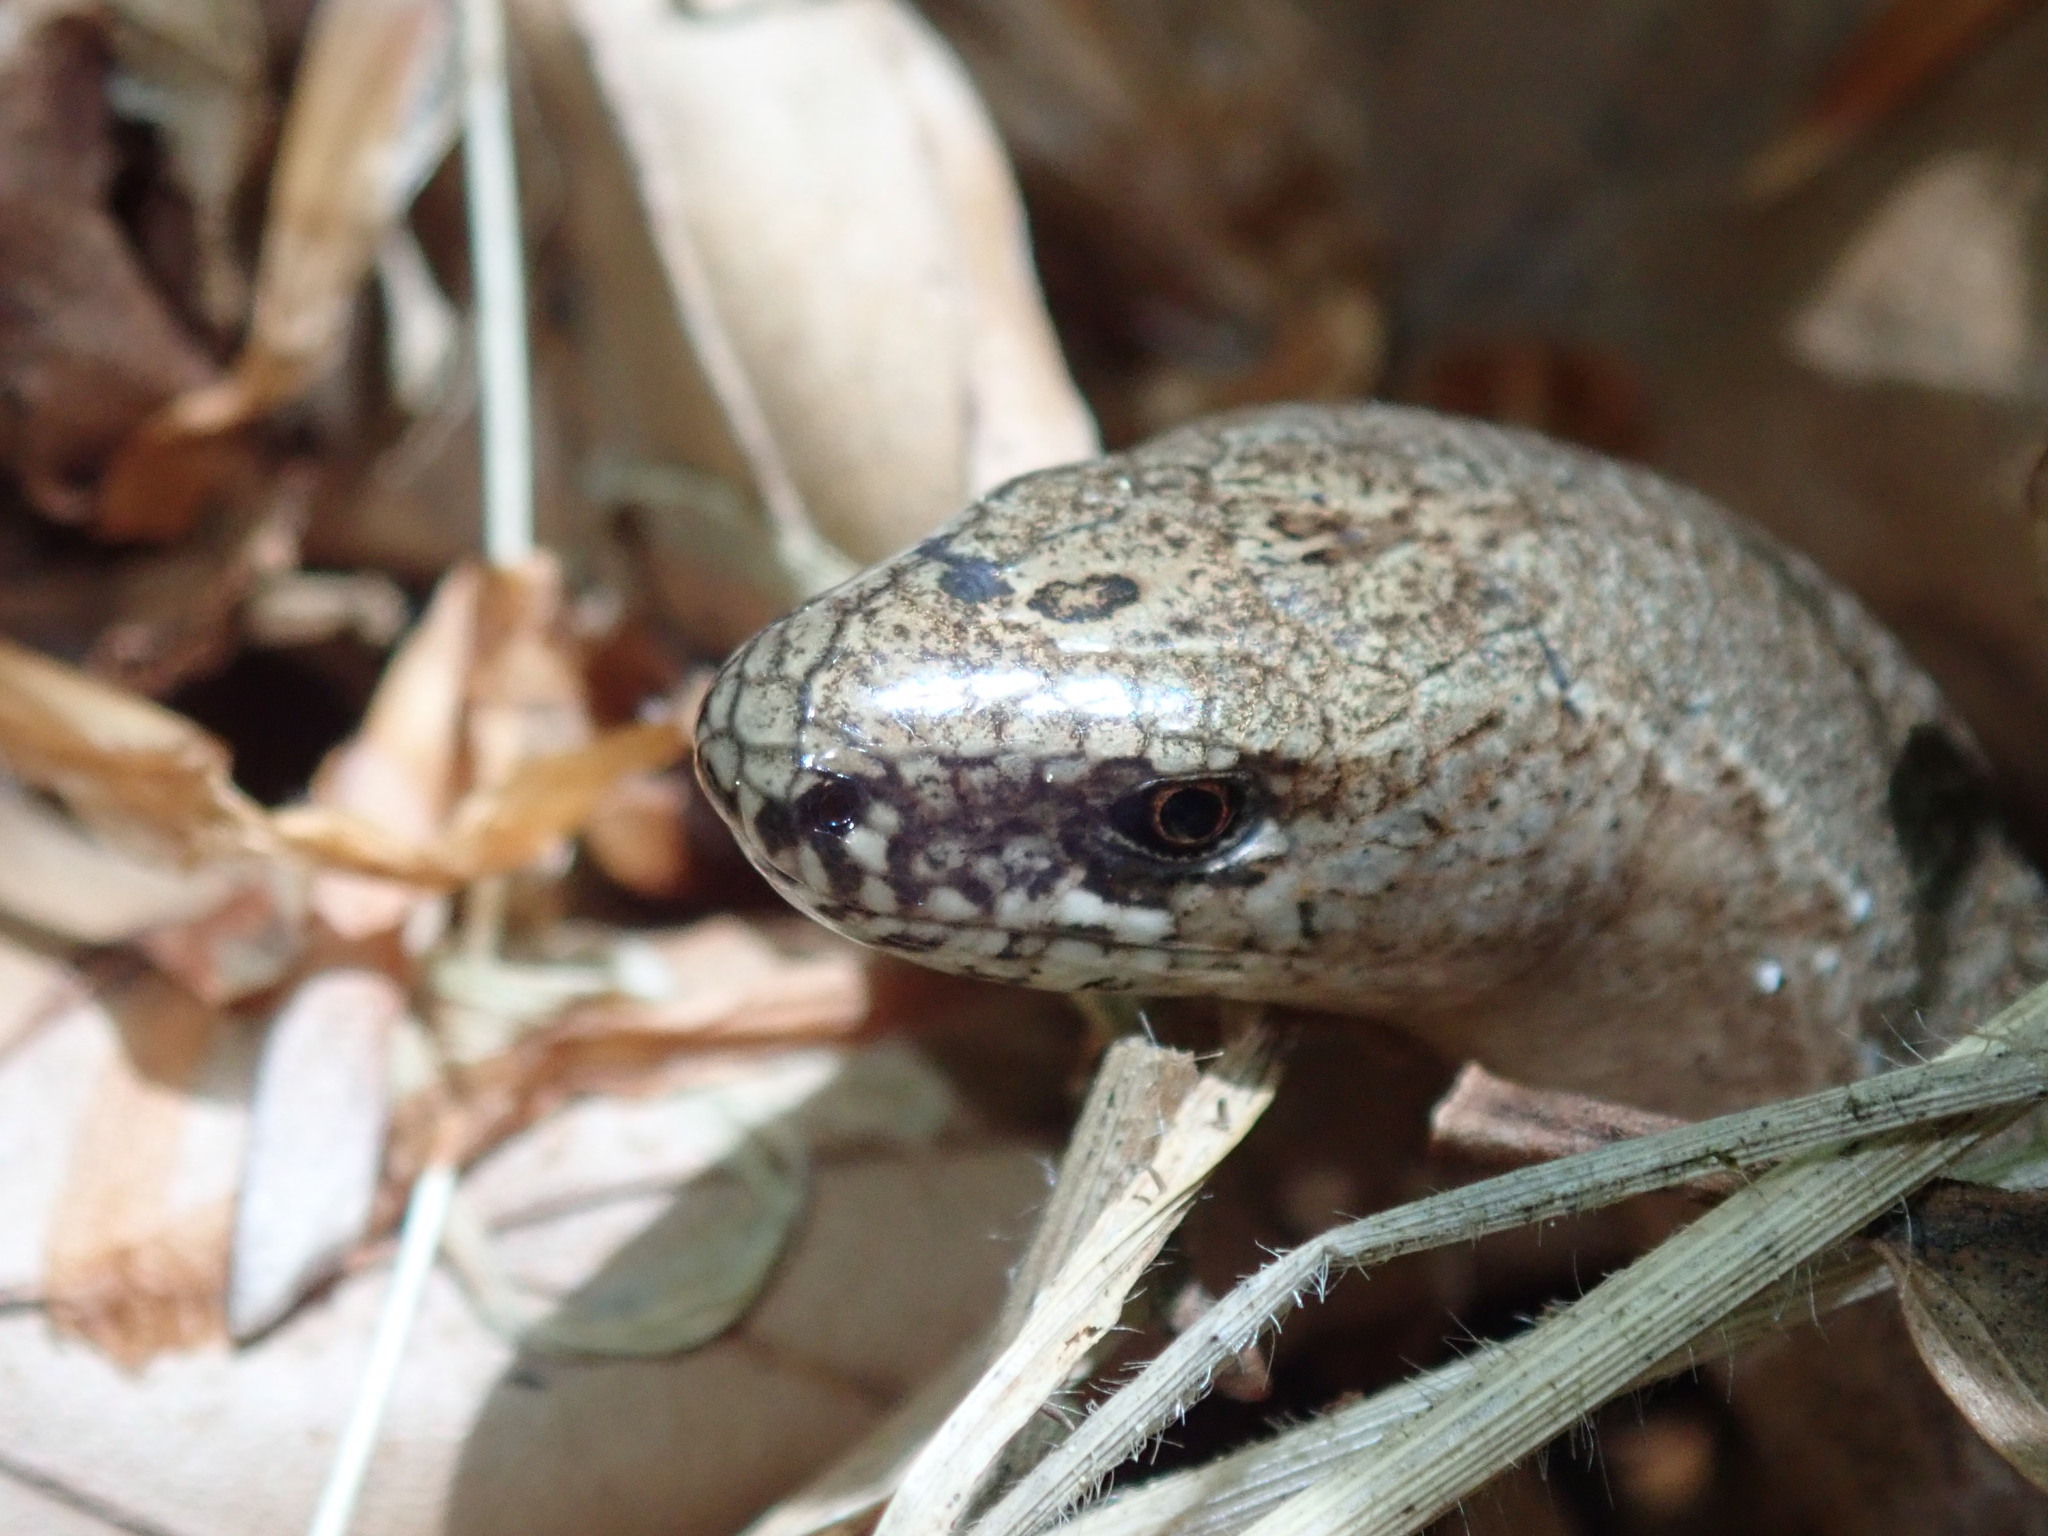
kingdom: Animalia
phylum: Chordata
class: Squamata
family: Anguidae
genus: Anguis
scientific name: Anguis fragilis
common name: Slow worm
